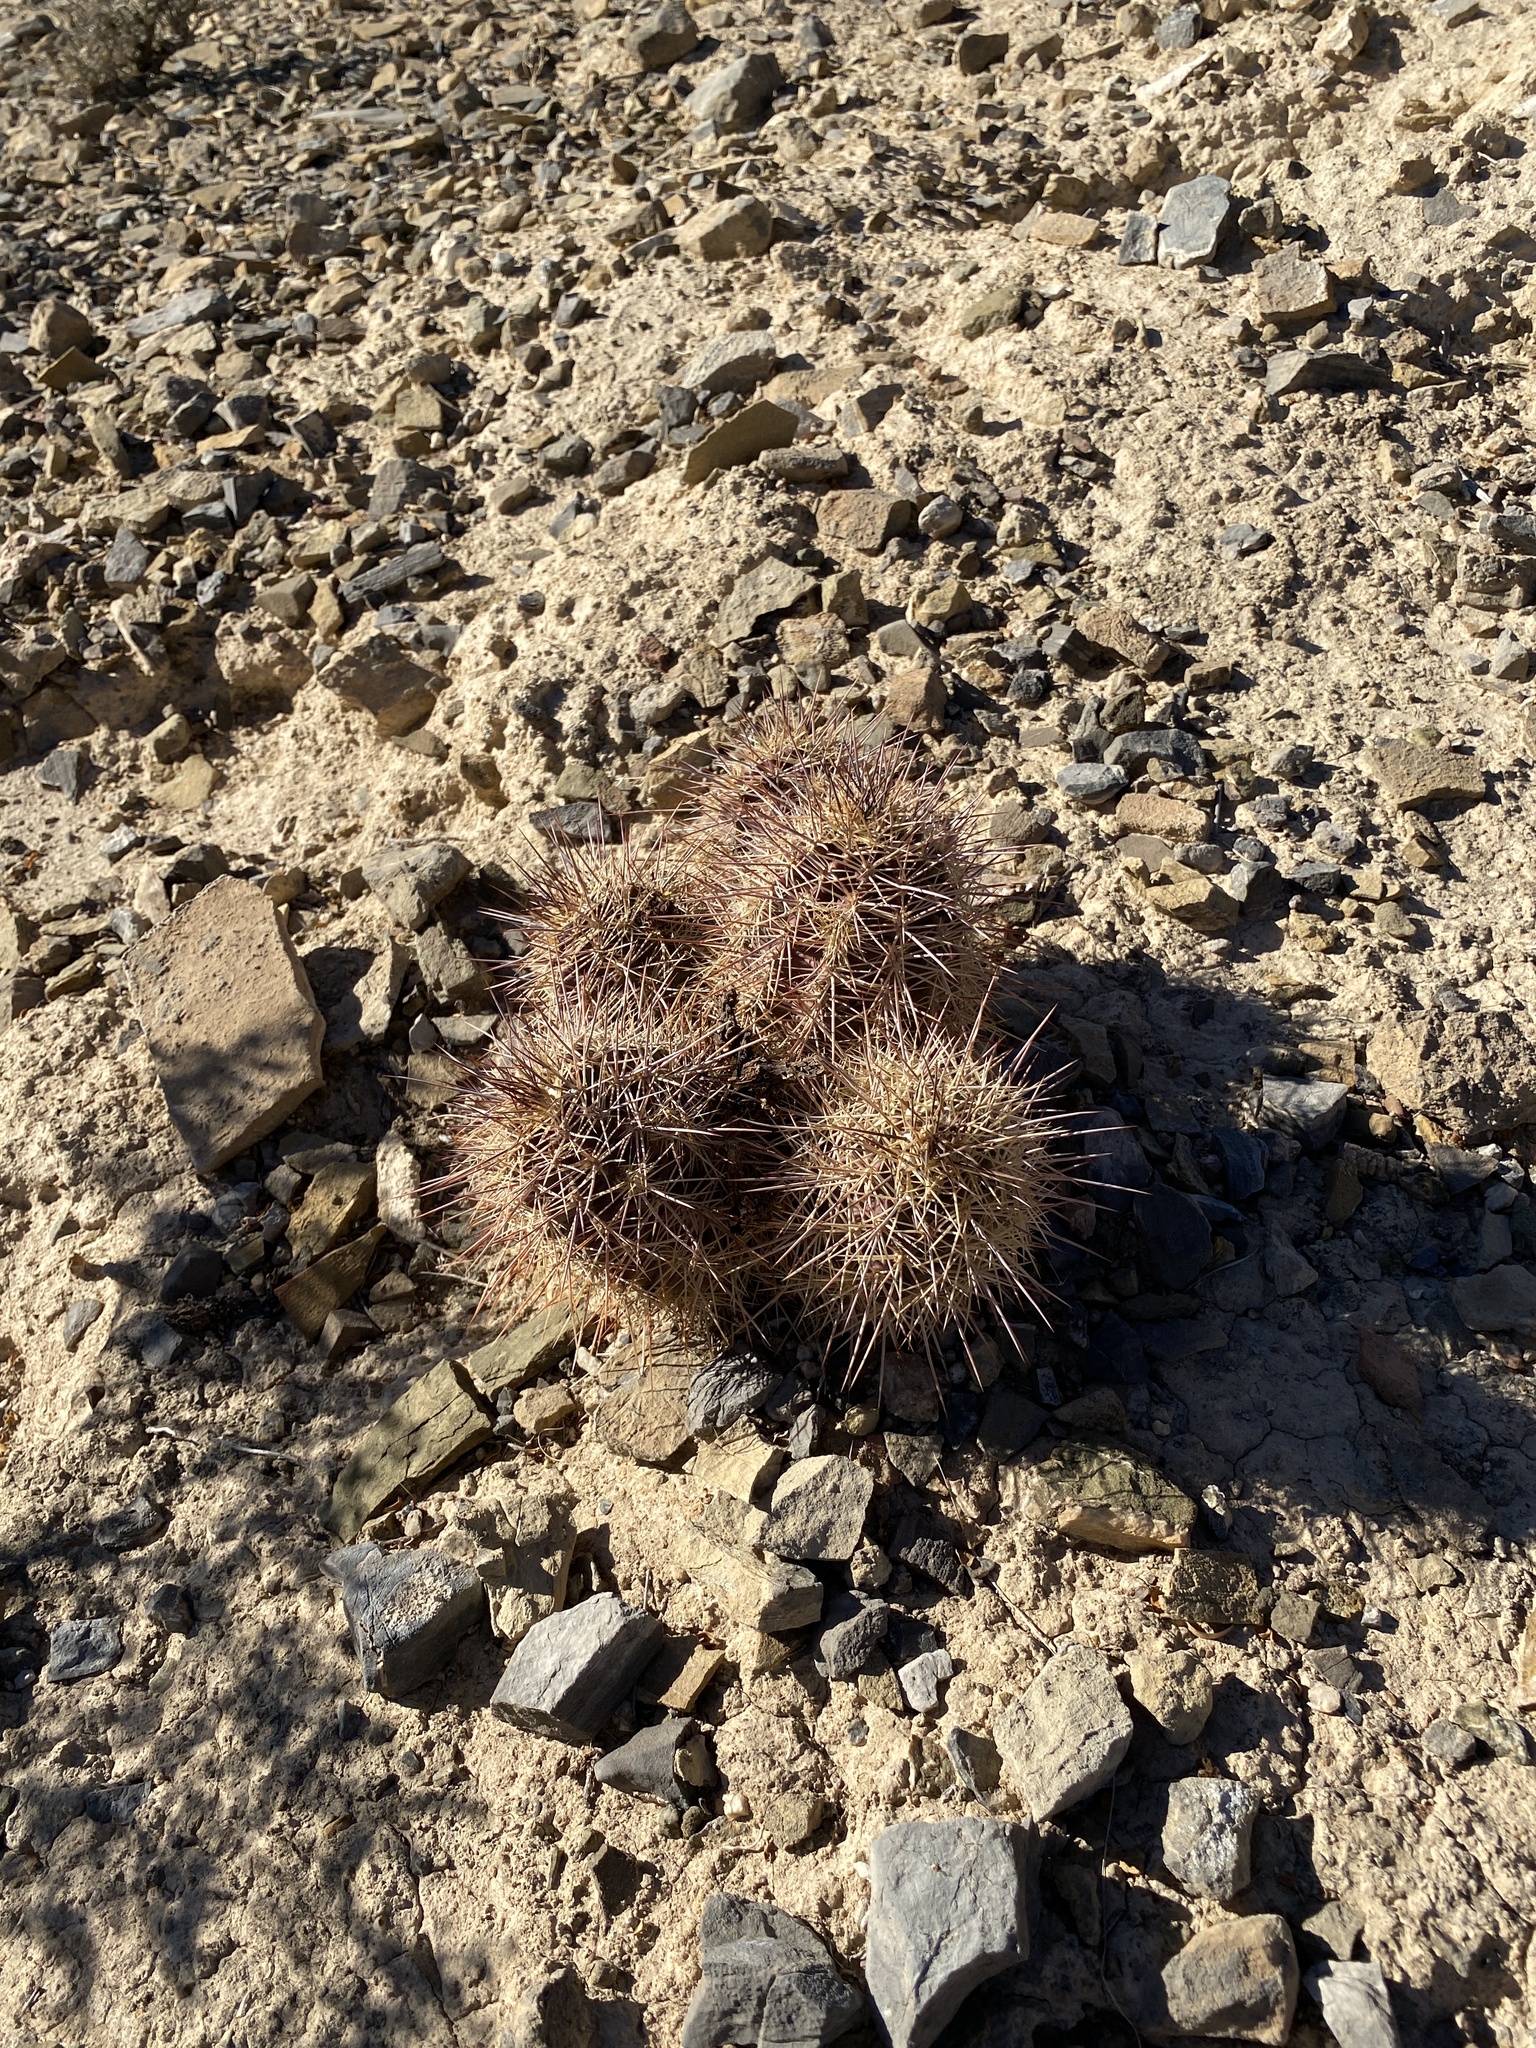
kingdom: Plantae
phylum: Tracheophyta
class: Magnoliopsida
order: Caryophyllales
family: Cactaceae
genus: Echinocereus
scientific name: Echinocereus coccineus
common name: Scarlet hedgehog cactus
